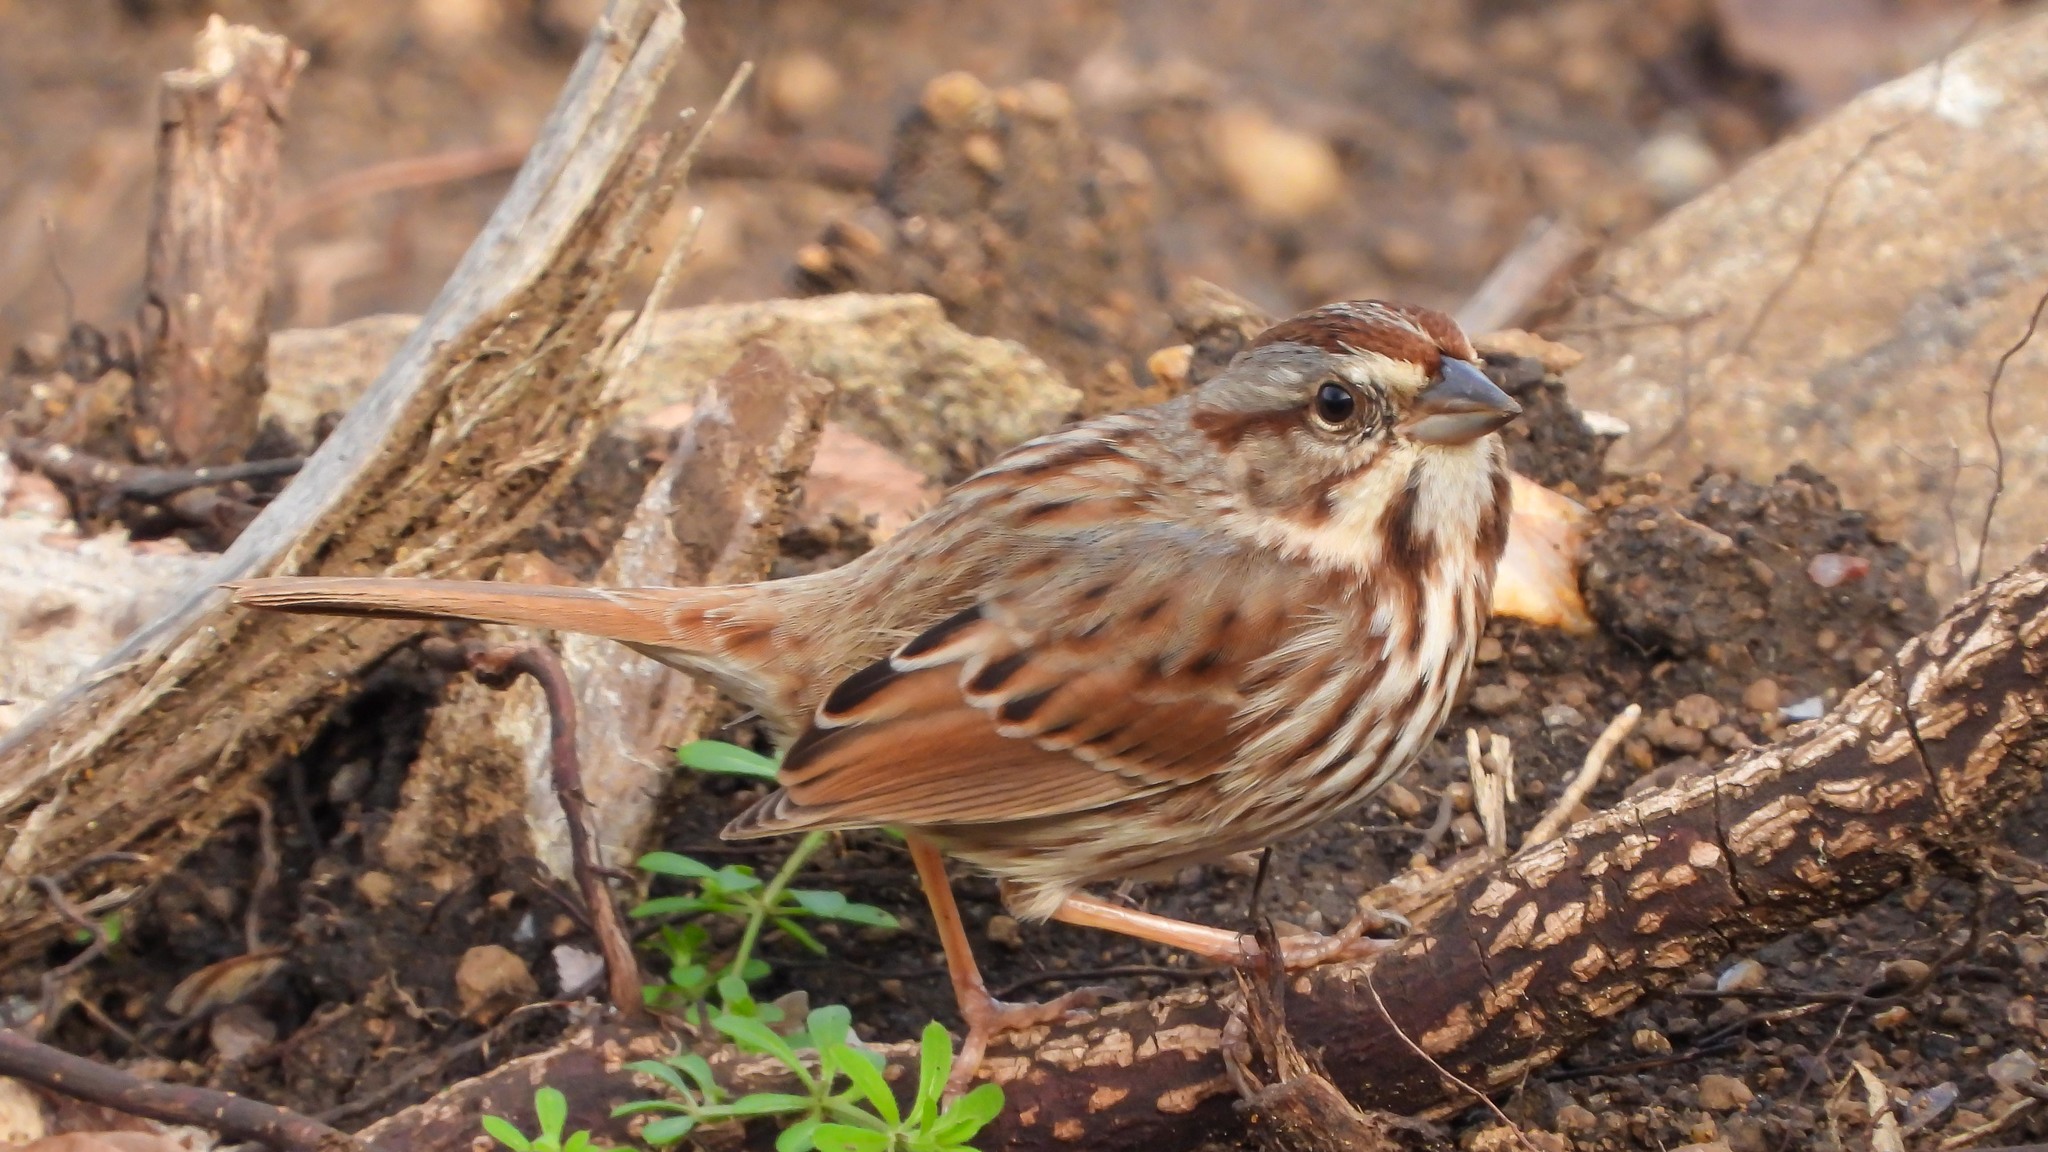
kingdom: Animalia
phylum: Chordata
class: Aves
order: Passeriformes
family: Passerellidae
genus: Melospiza
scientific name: Melospiza melodia
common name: Song sparrow
